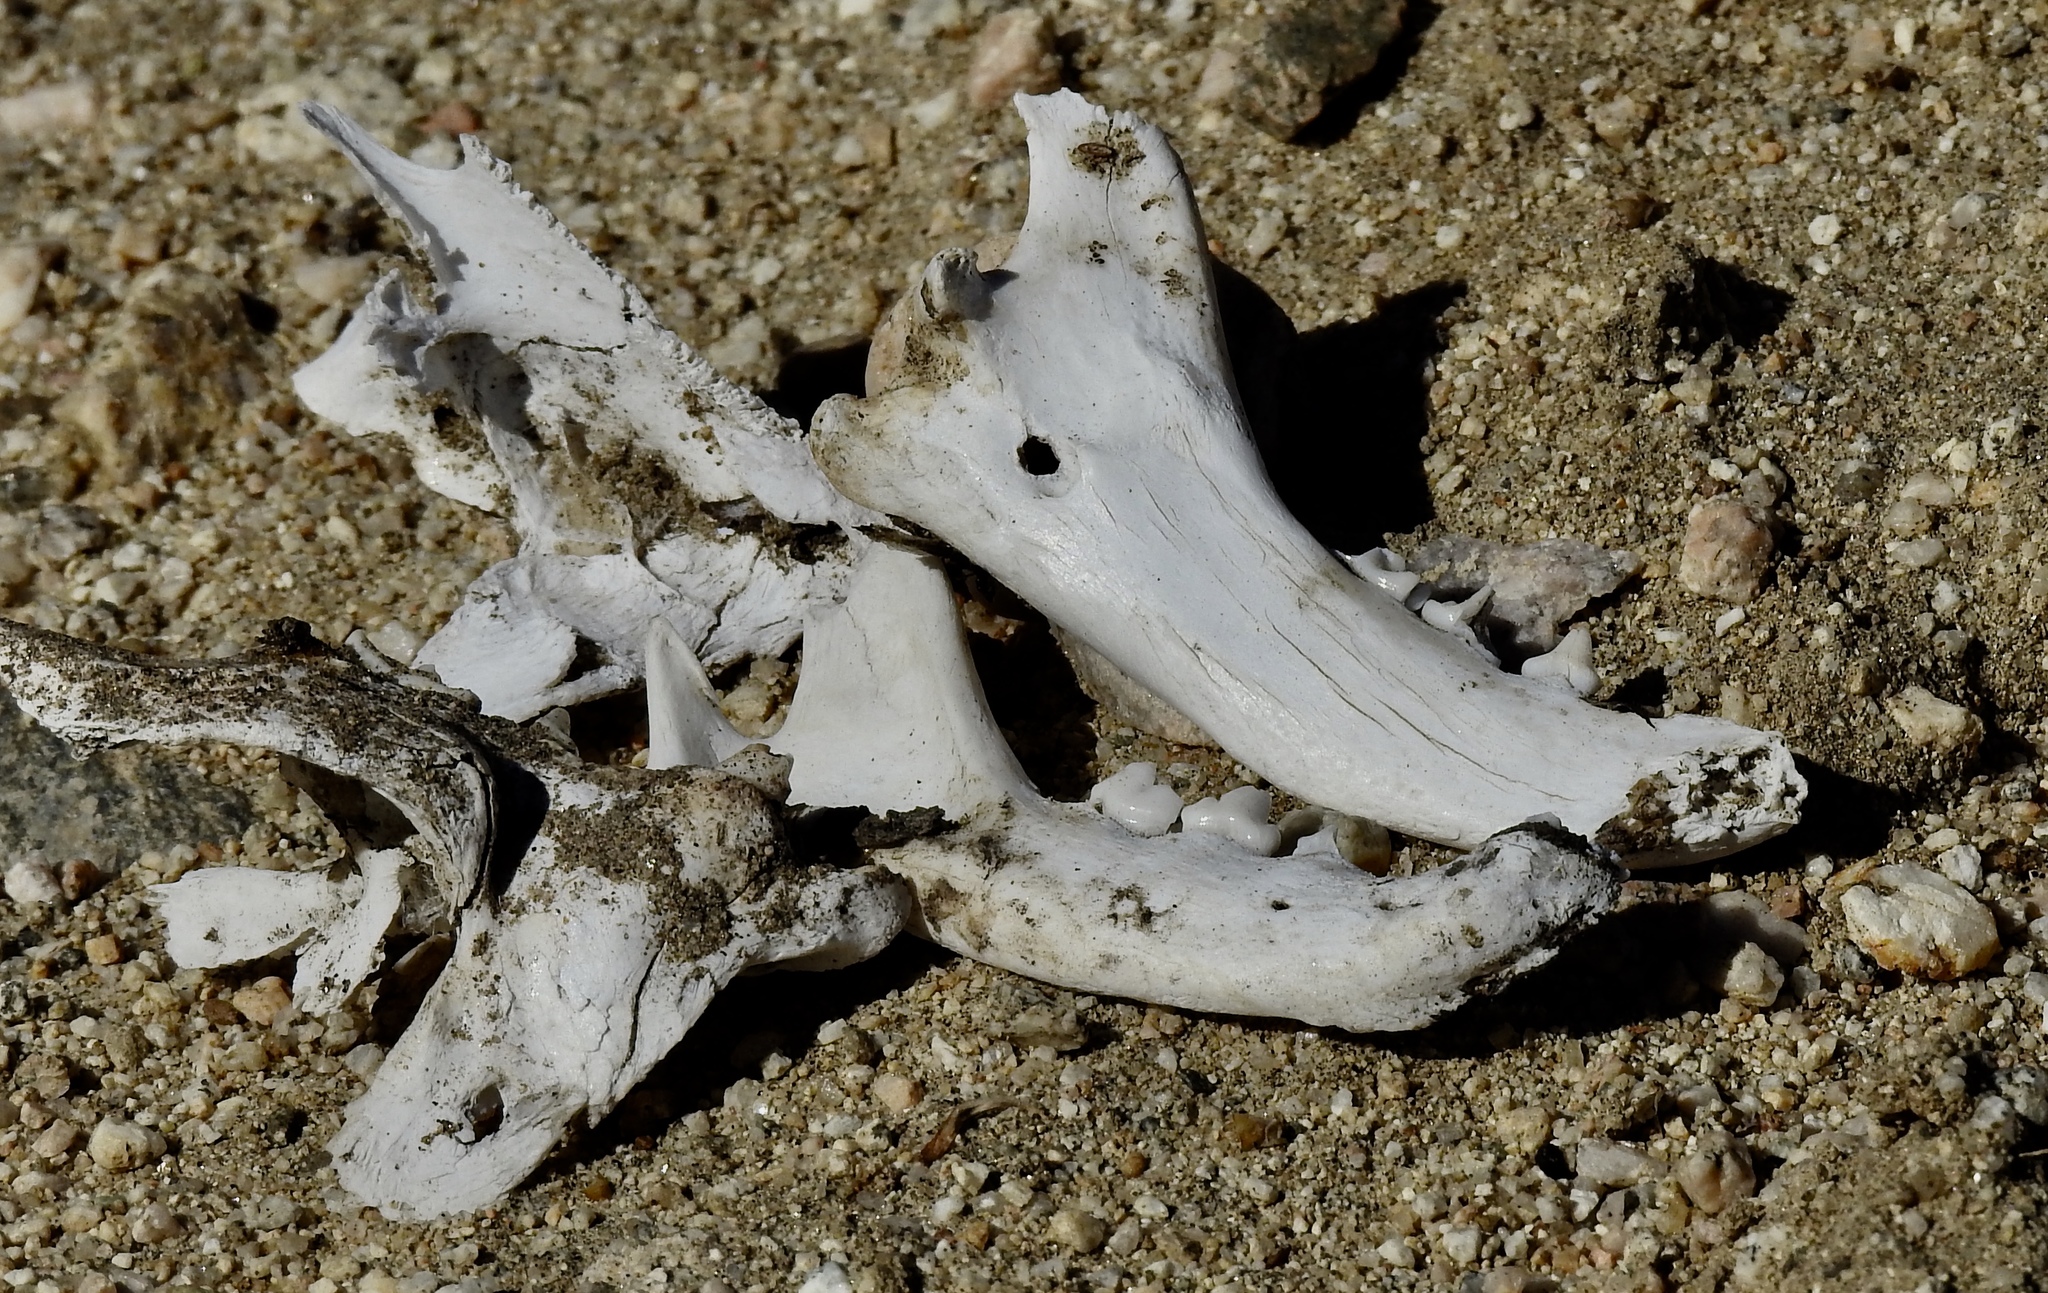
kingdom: Animalia
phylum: Chordata
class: Mammalia
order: Carnivora
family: Felidae
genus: Lynx
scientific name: Lynx rufus
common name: Bobcat
